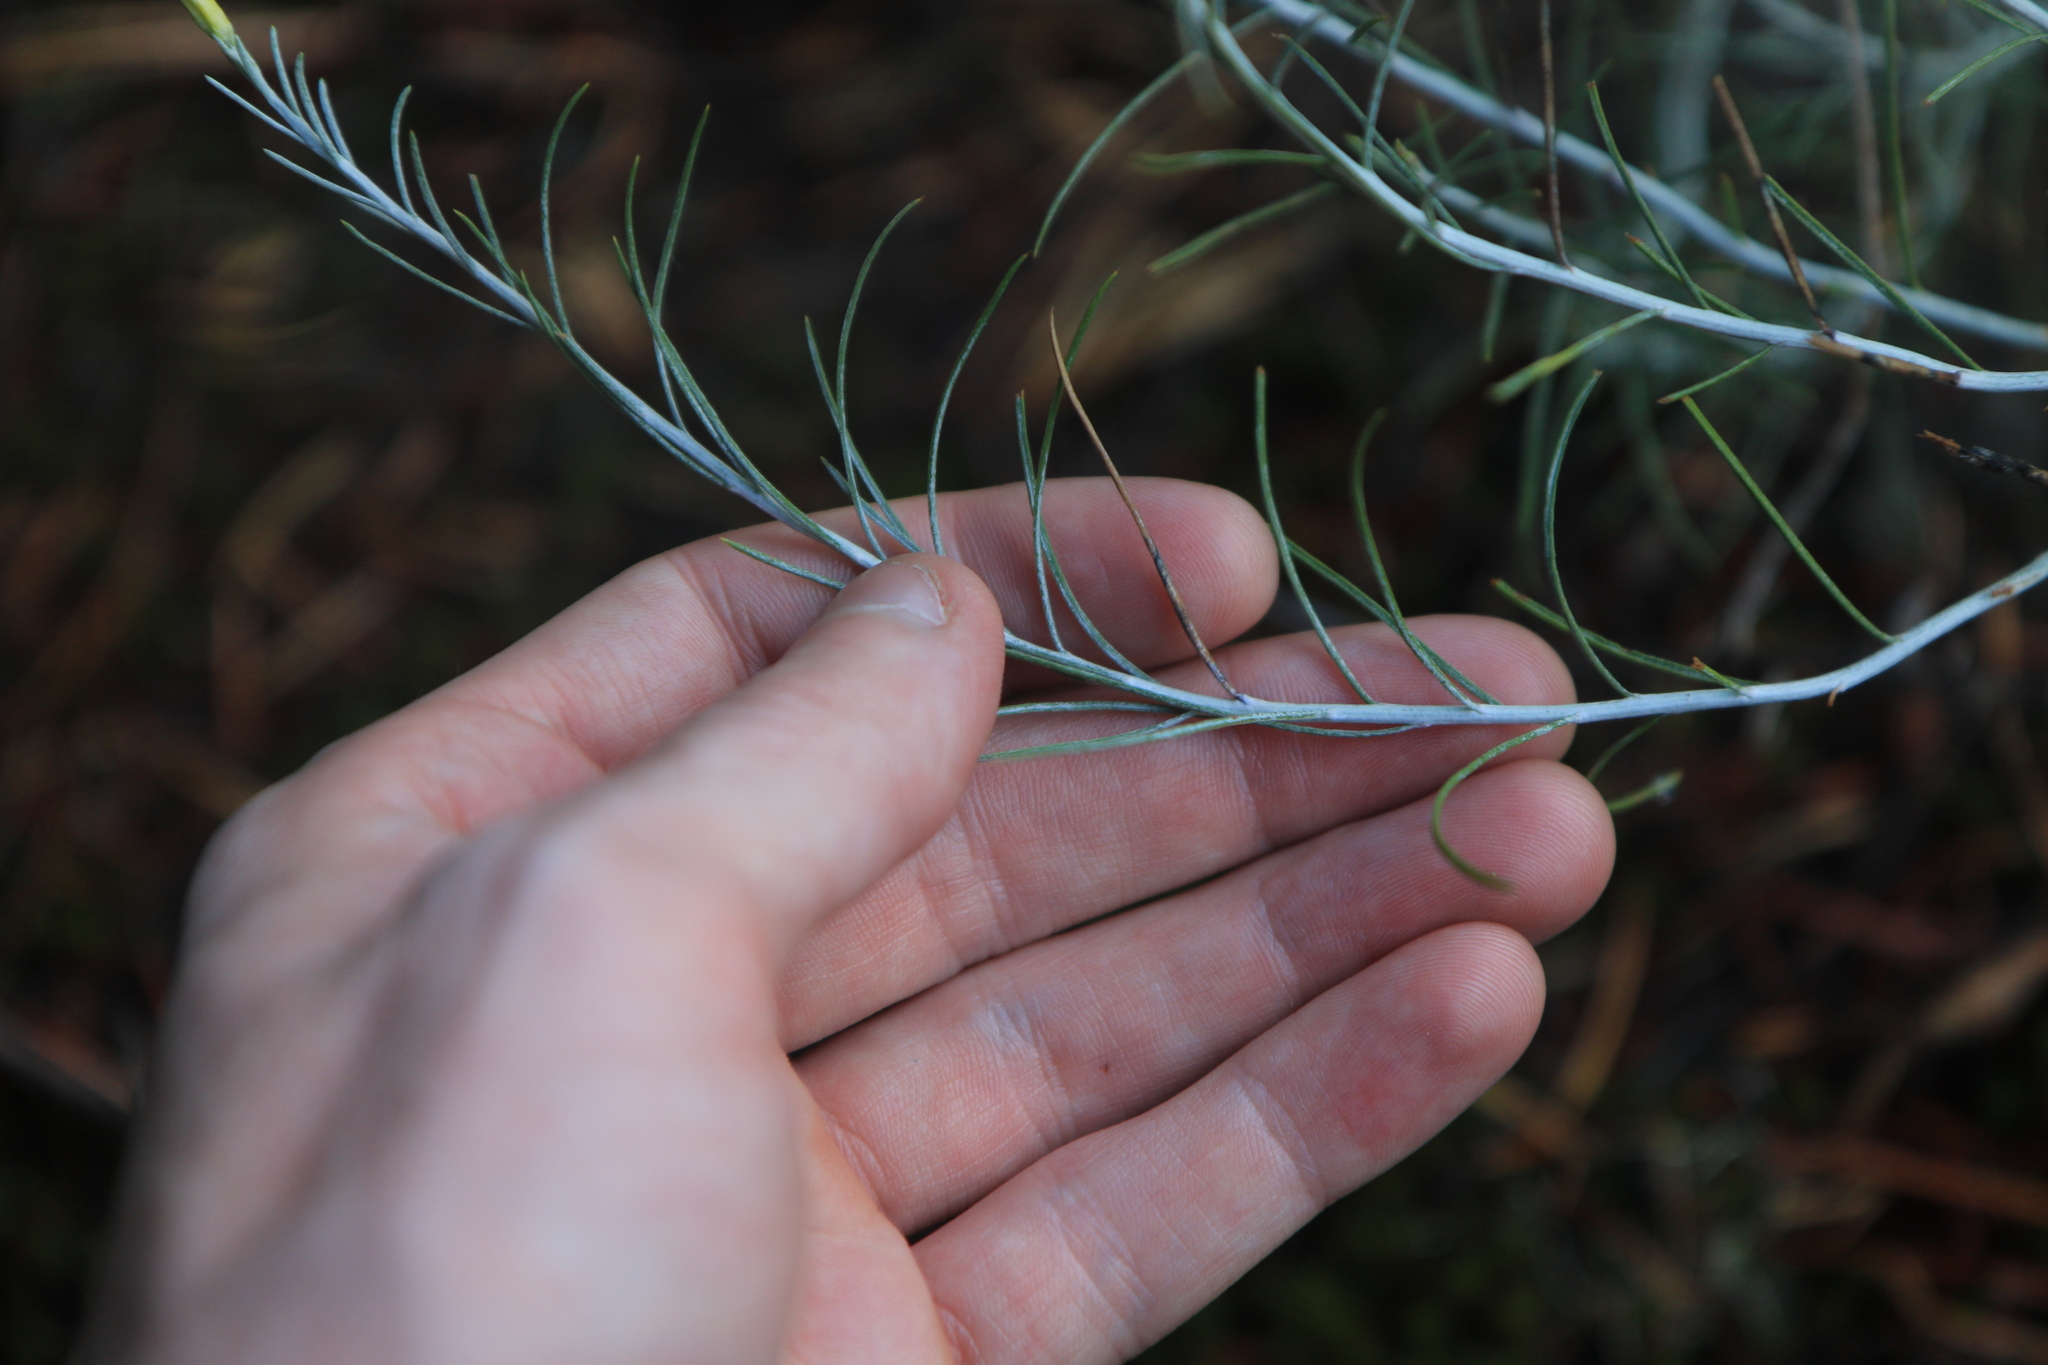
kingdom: Plantae
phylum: Tracheophyta
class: Magnoliopsida
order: Asterales
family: Asteraceae
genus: Ericameria
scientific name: Ericameria nauseosa
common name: Rubber rabbitbrush
